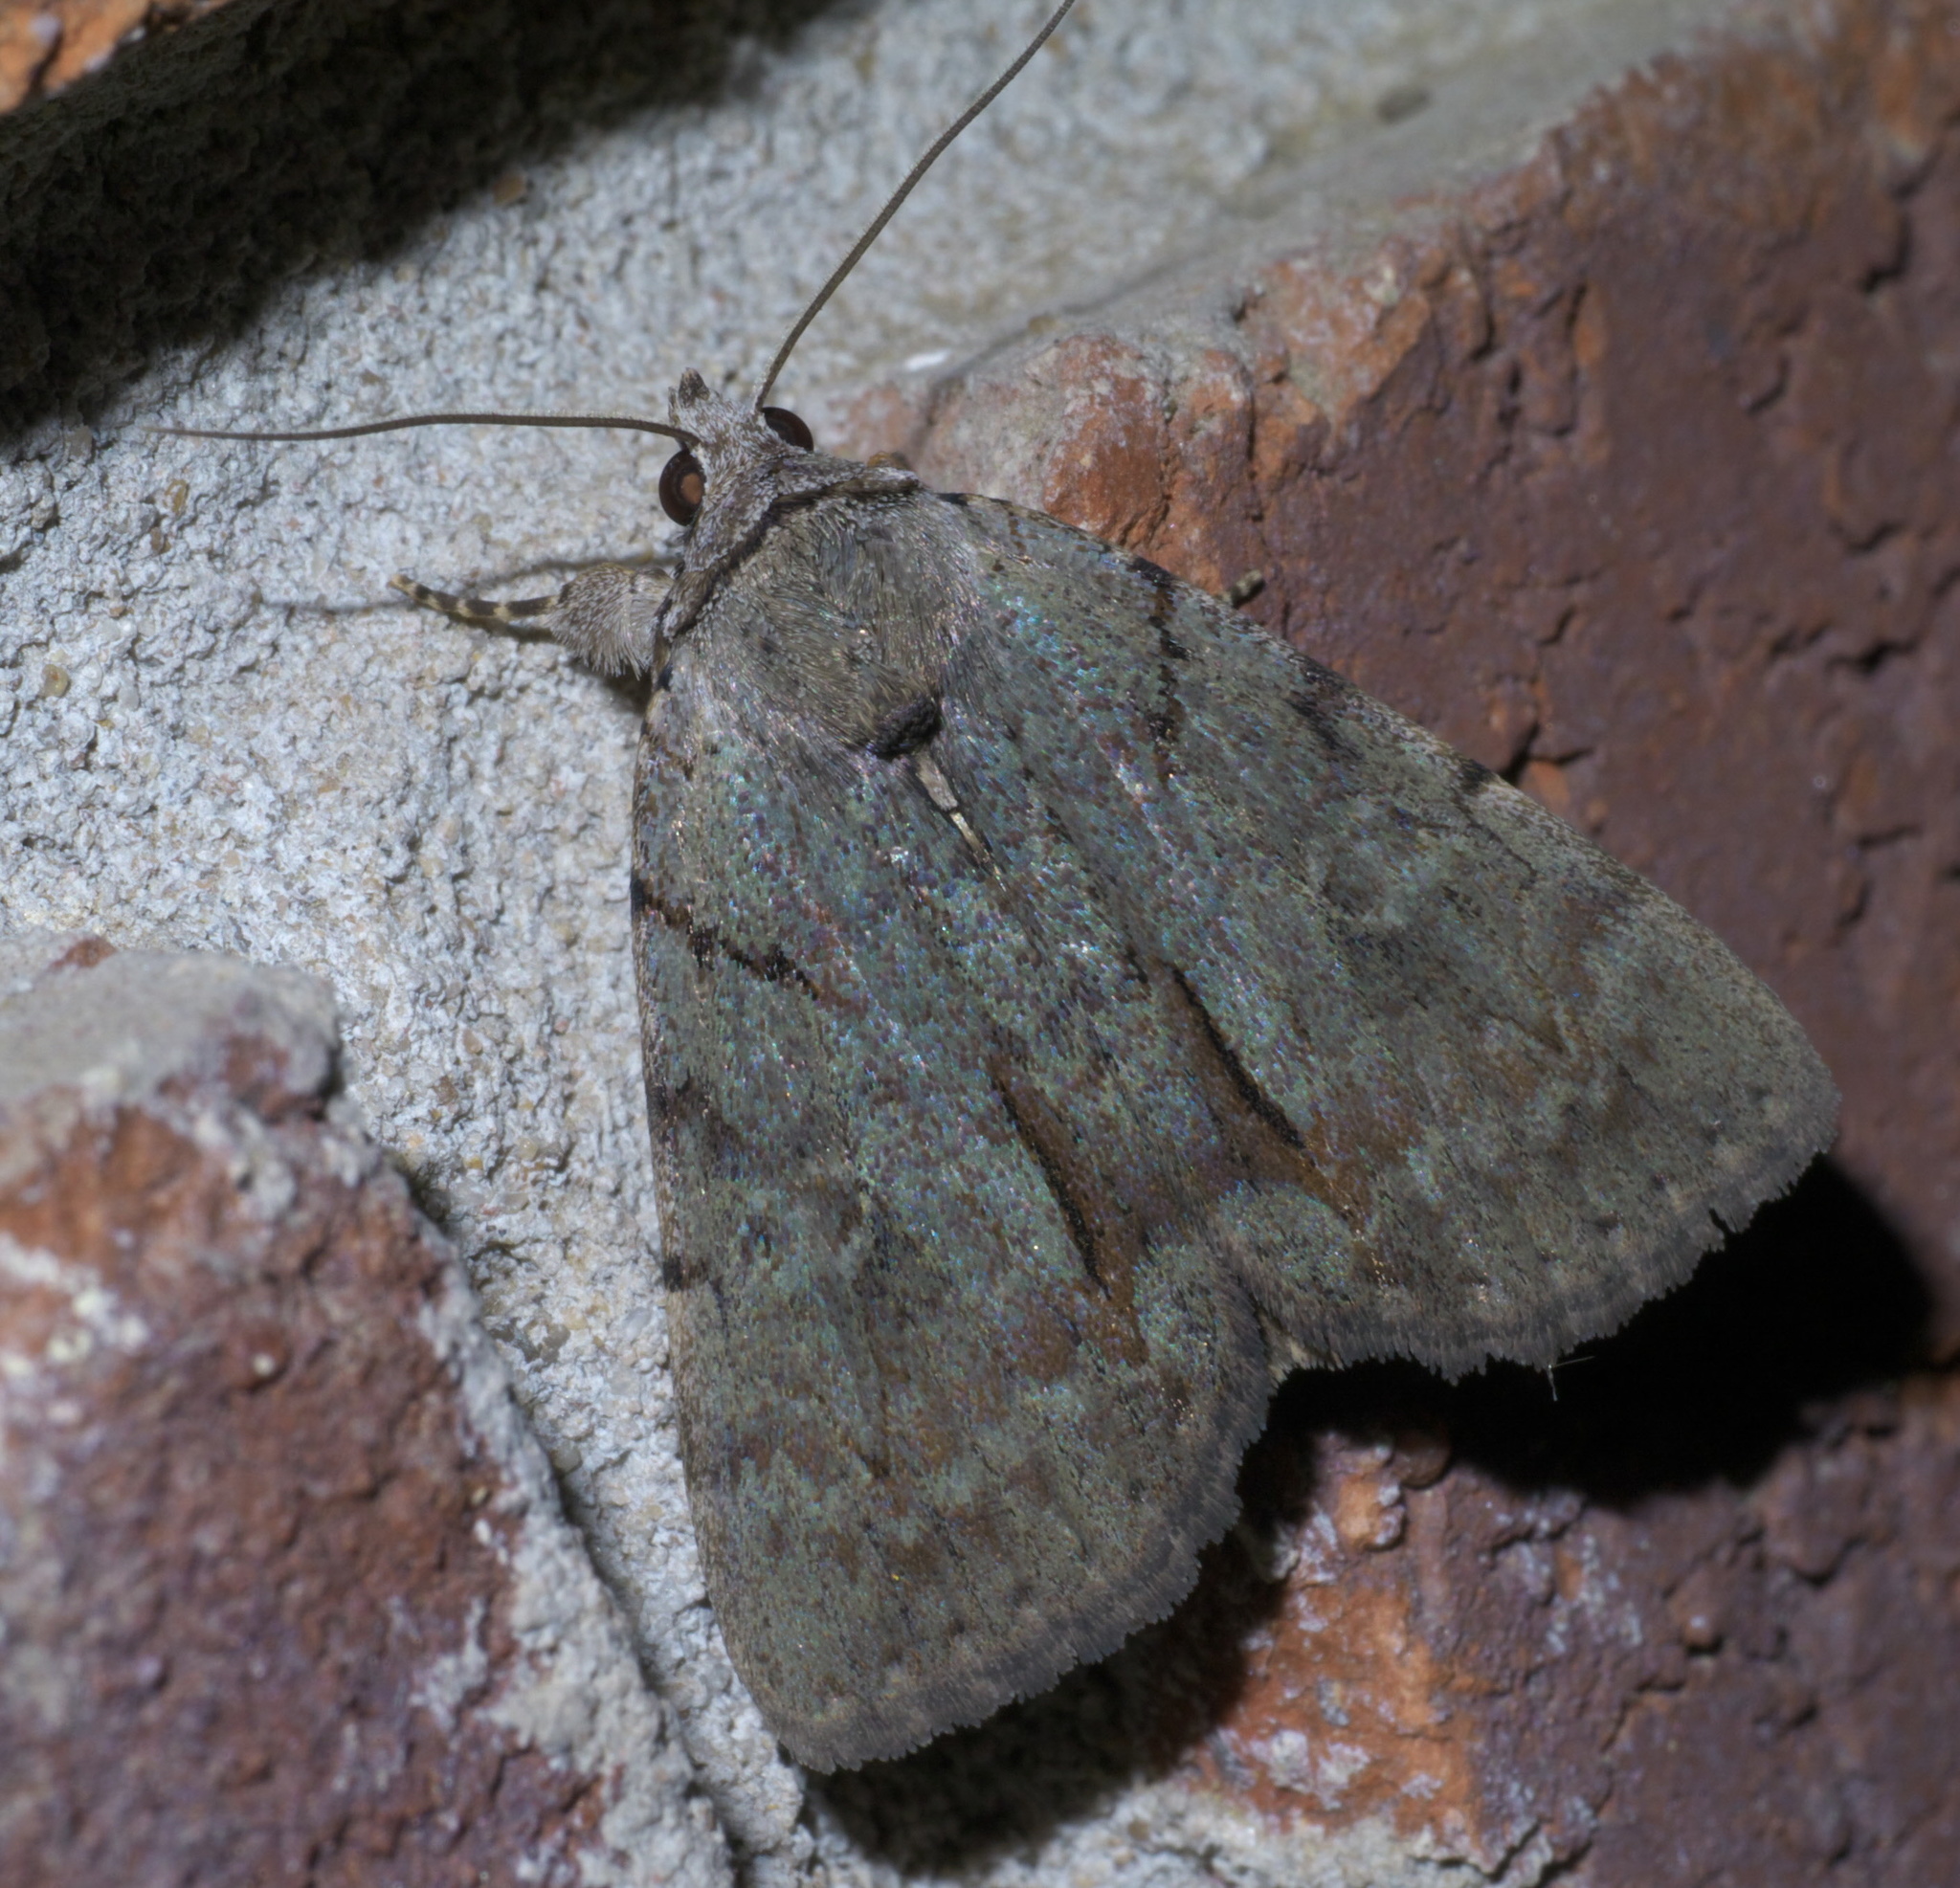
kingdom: Animalia
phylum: Arthropoda
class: Insecta
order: Lepidoptera
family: Erebidae
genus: Catocala
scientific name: Catocala alabamae
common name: Alabama underwing
